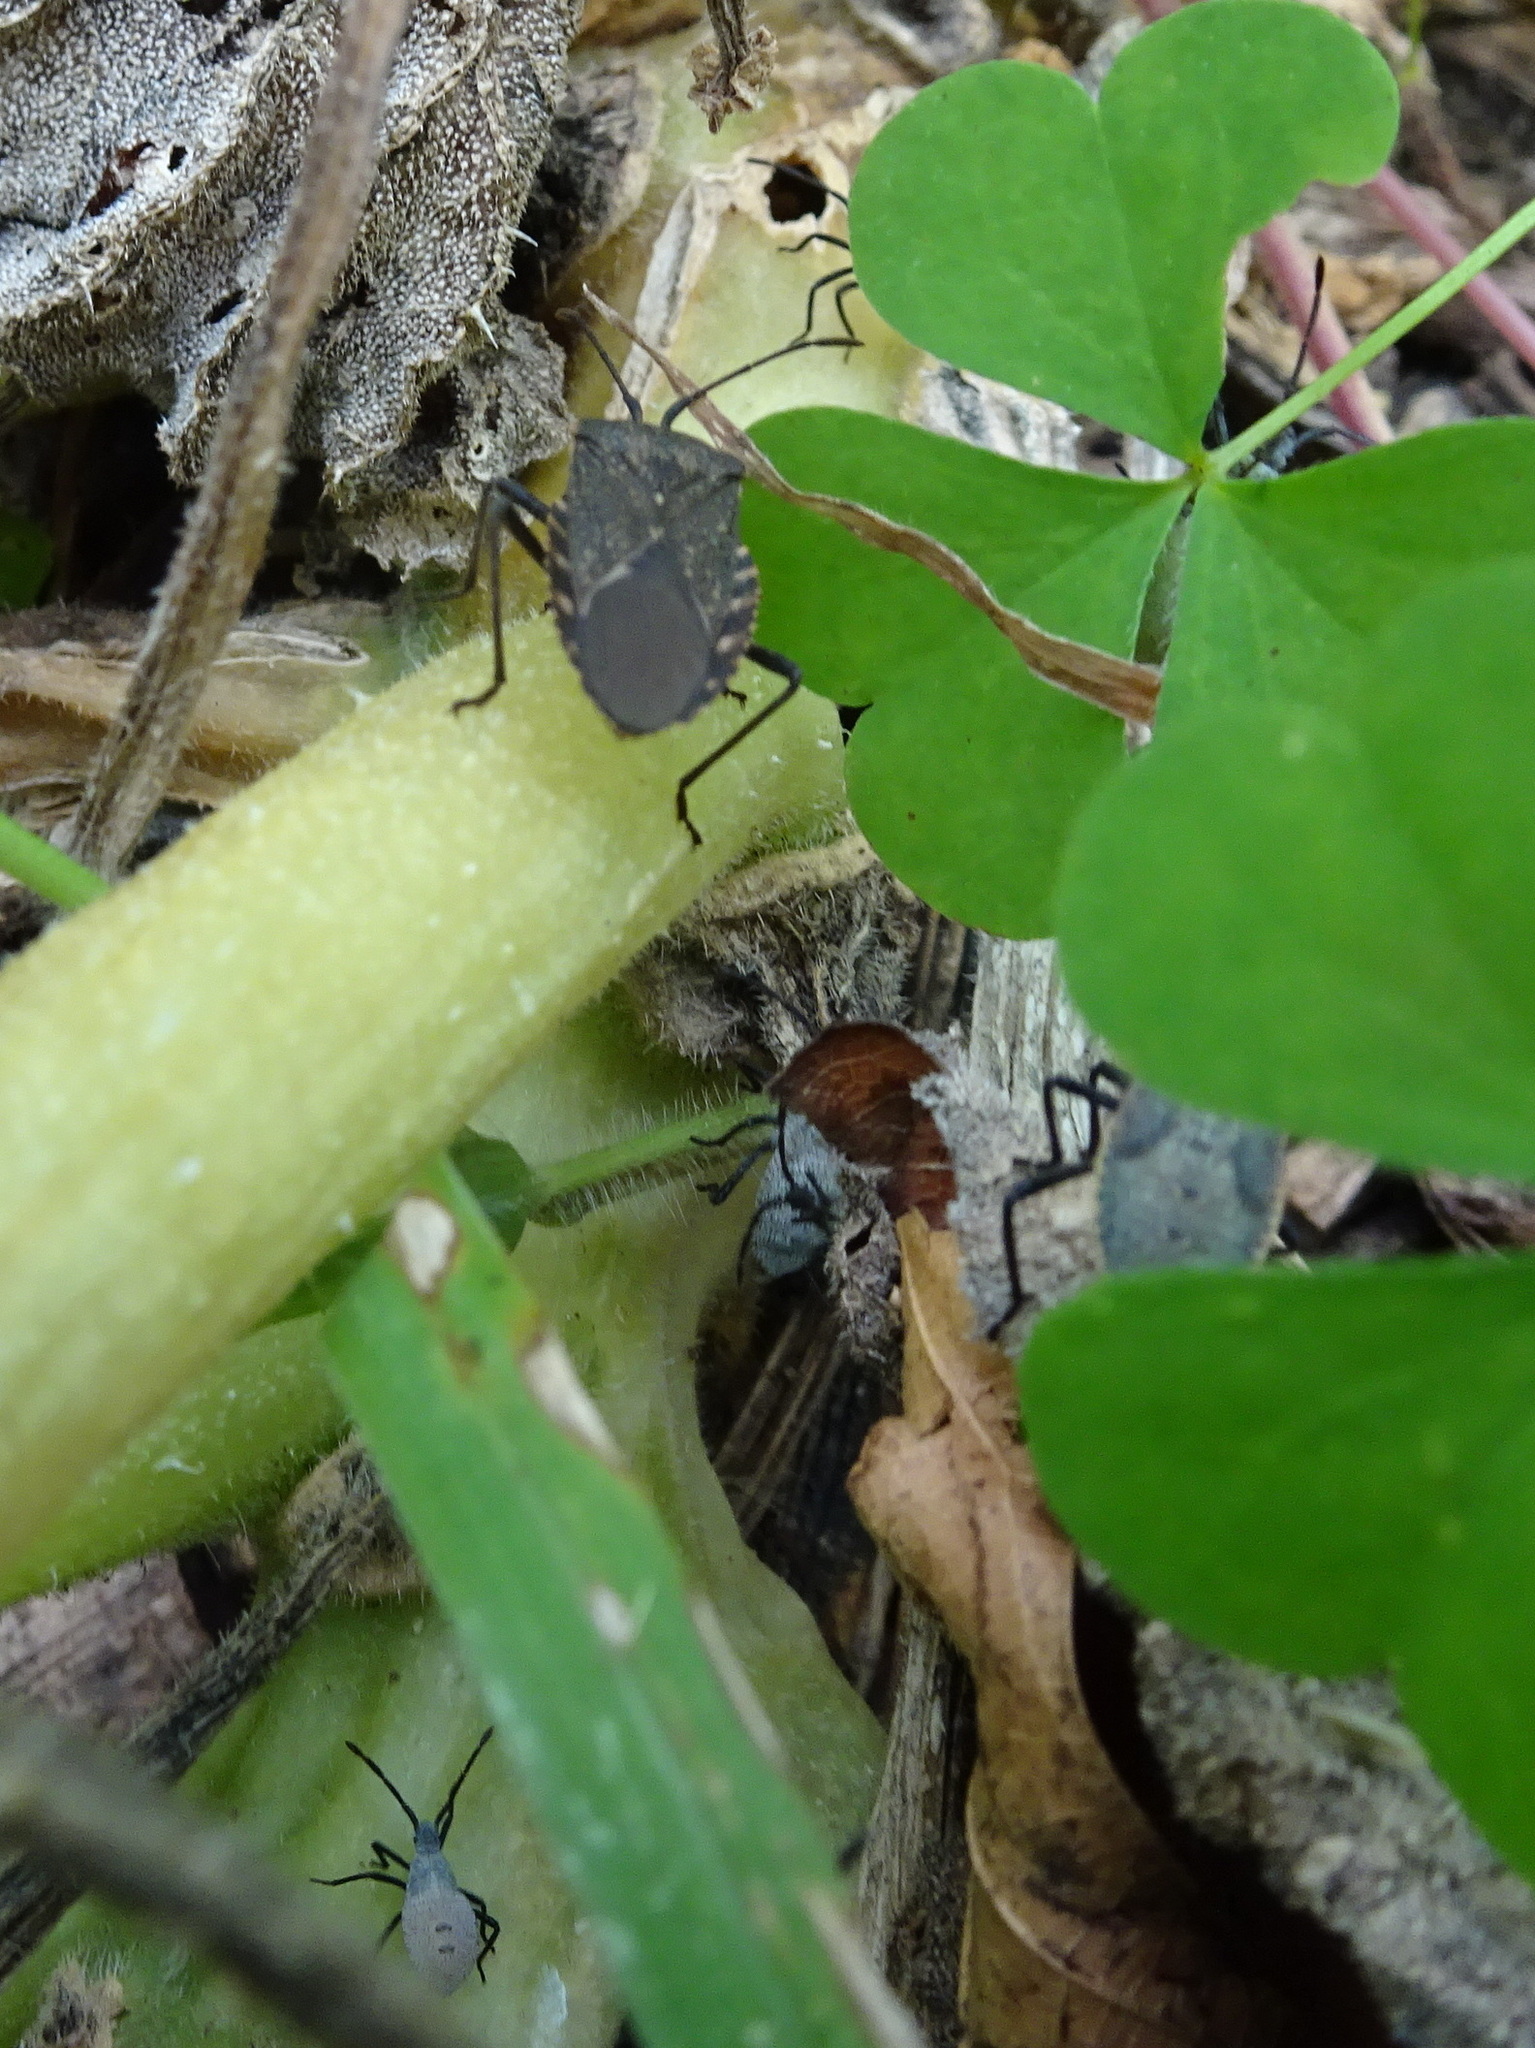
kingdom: Animalia
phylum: Arthropoda
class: Insecta
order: Hemiptera
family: Coreidae
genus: Anasa
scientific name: Anasa tristis
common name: Squash bug
